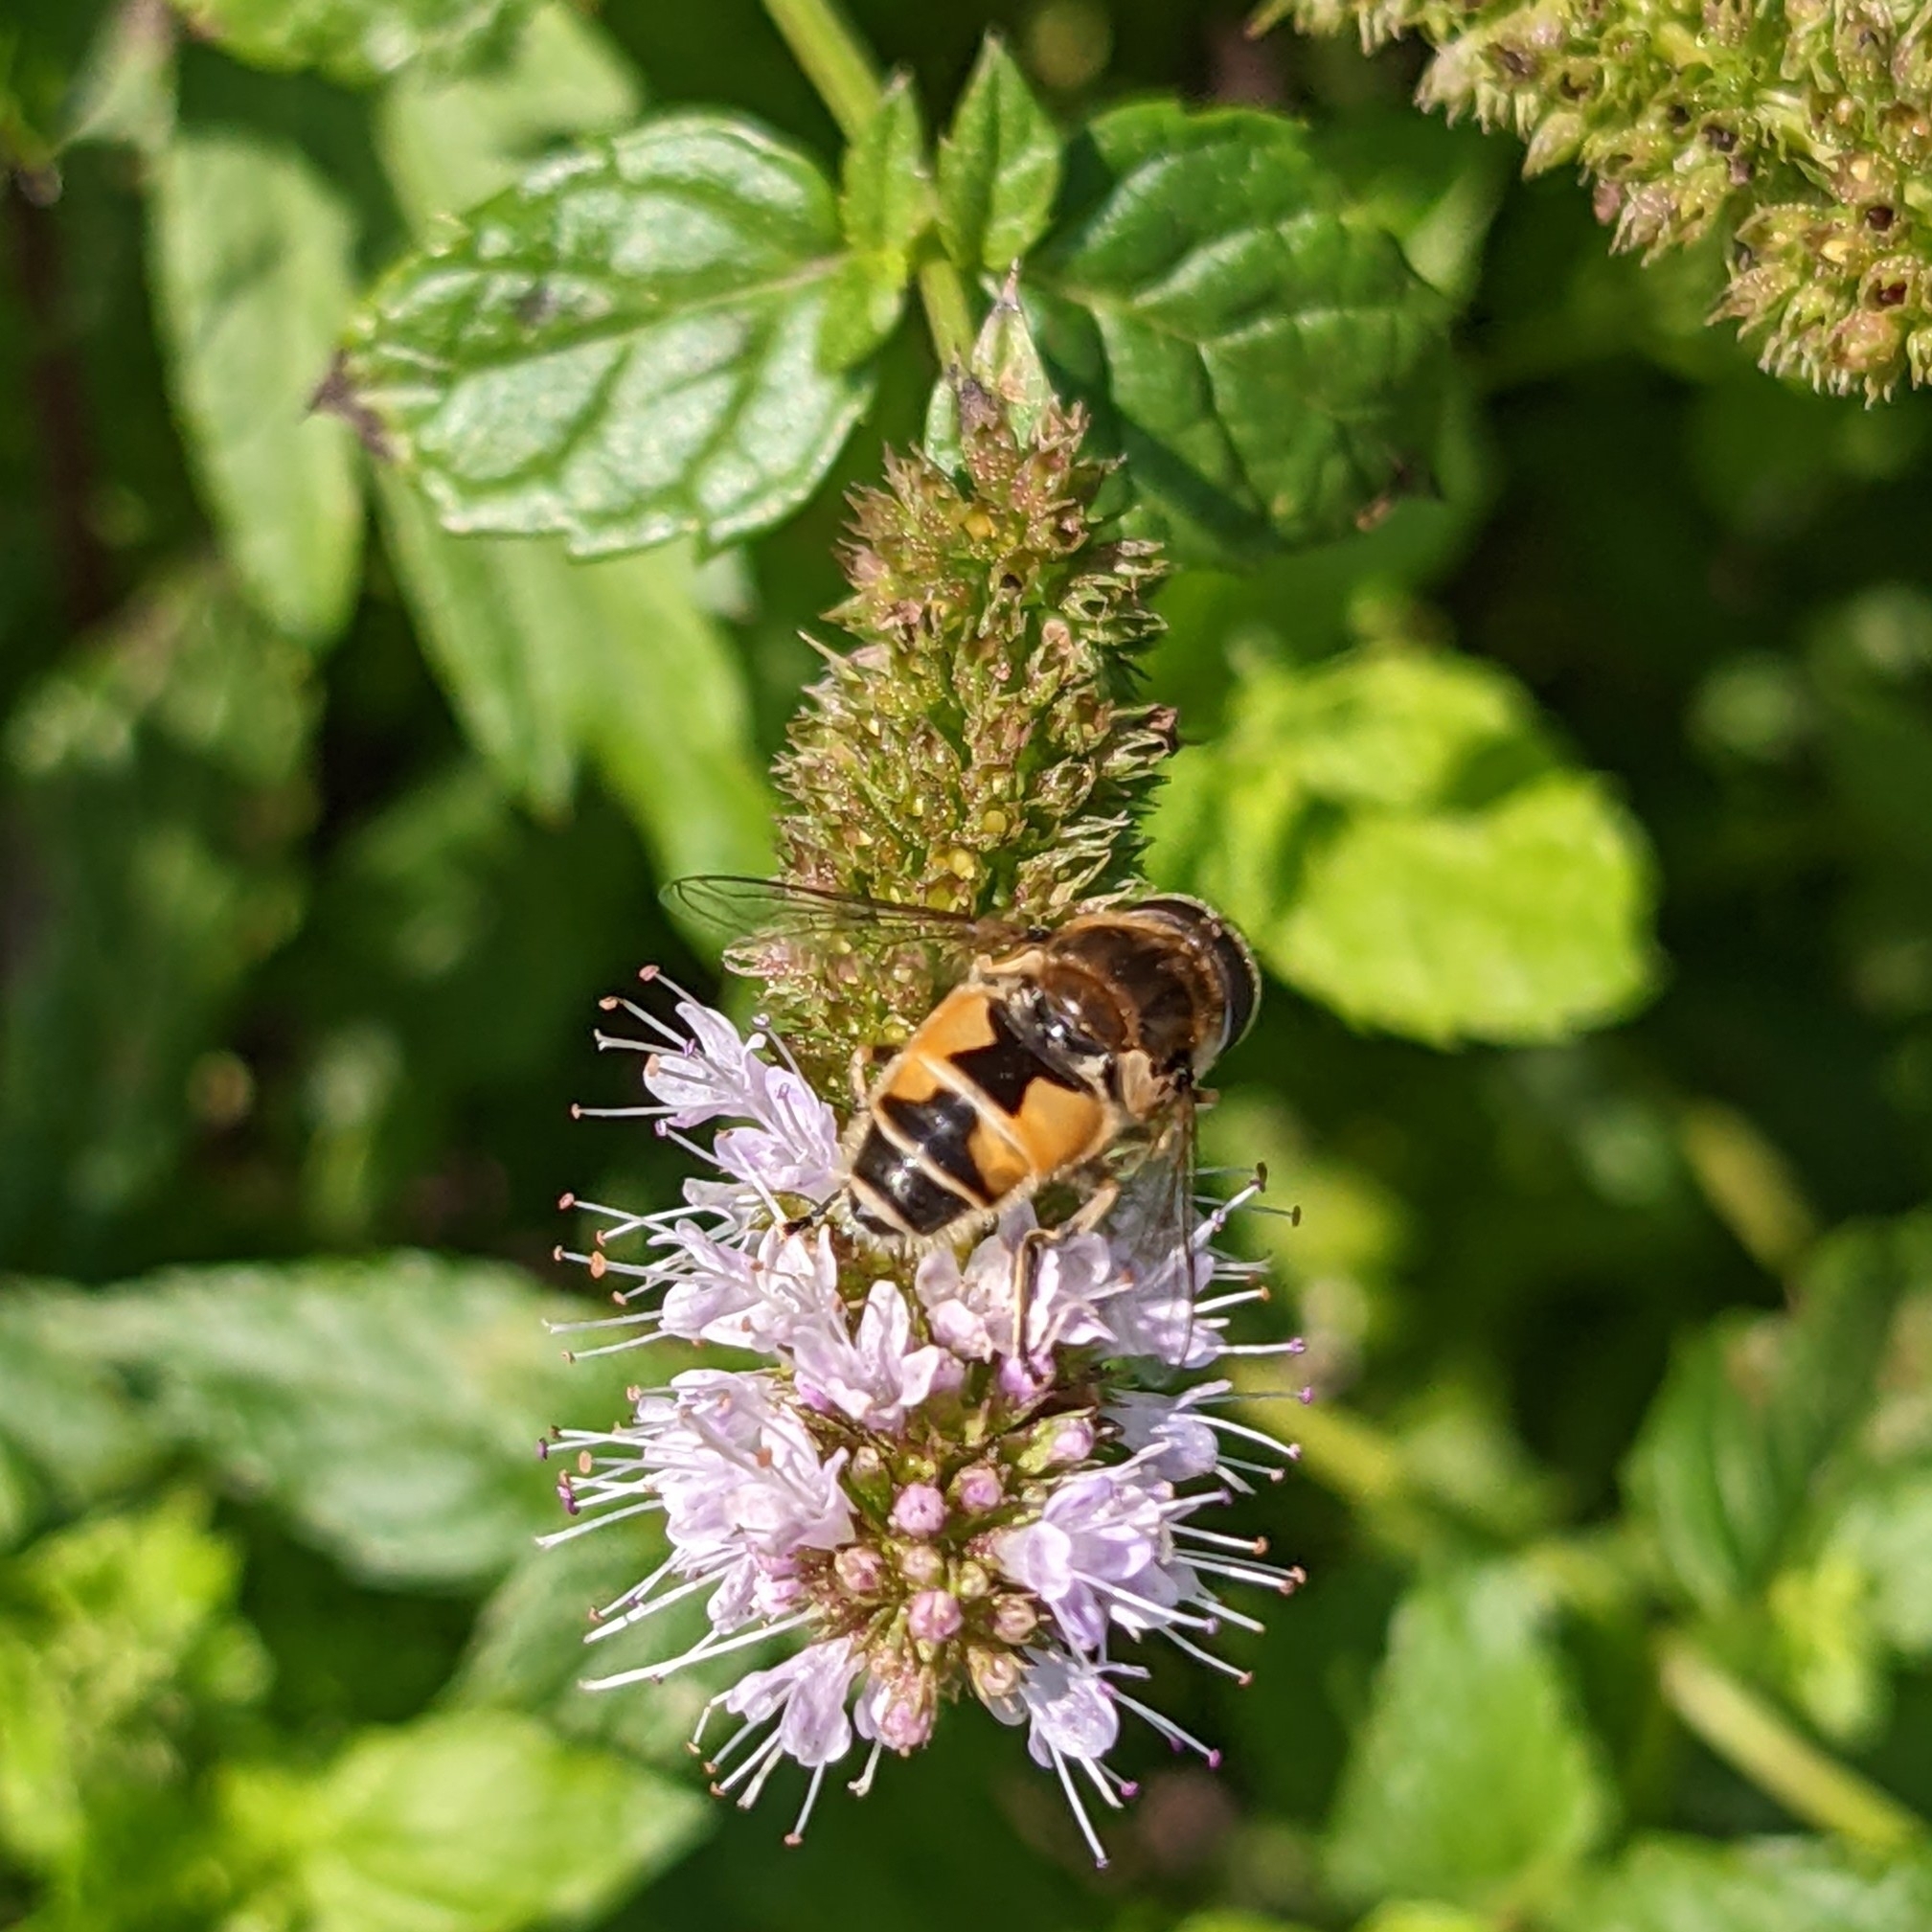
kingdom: Animalia
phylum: Arthropoda
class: Insecta
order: Diptera
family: Syrphidae
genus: Eristalis
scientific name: Eristalis arbustorum
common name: Hover fly
